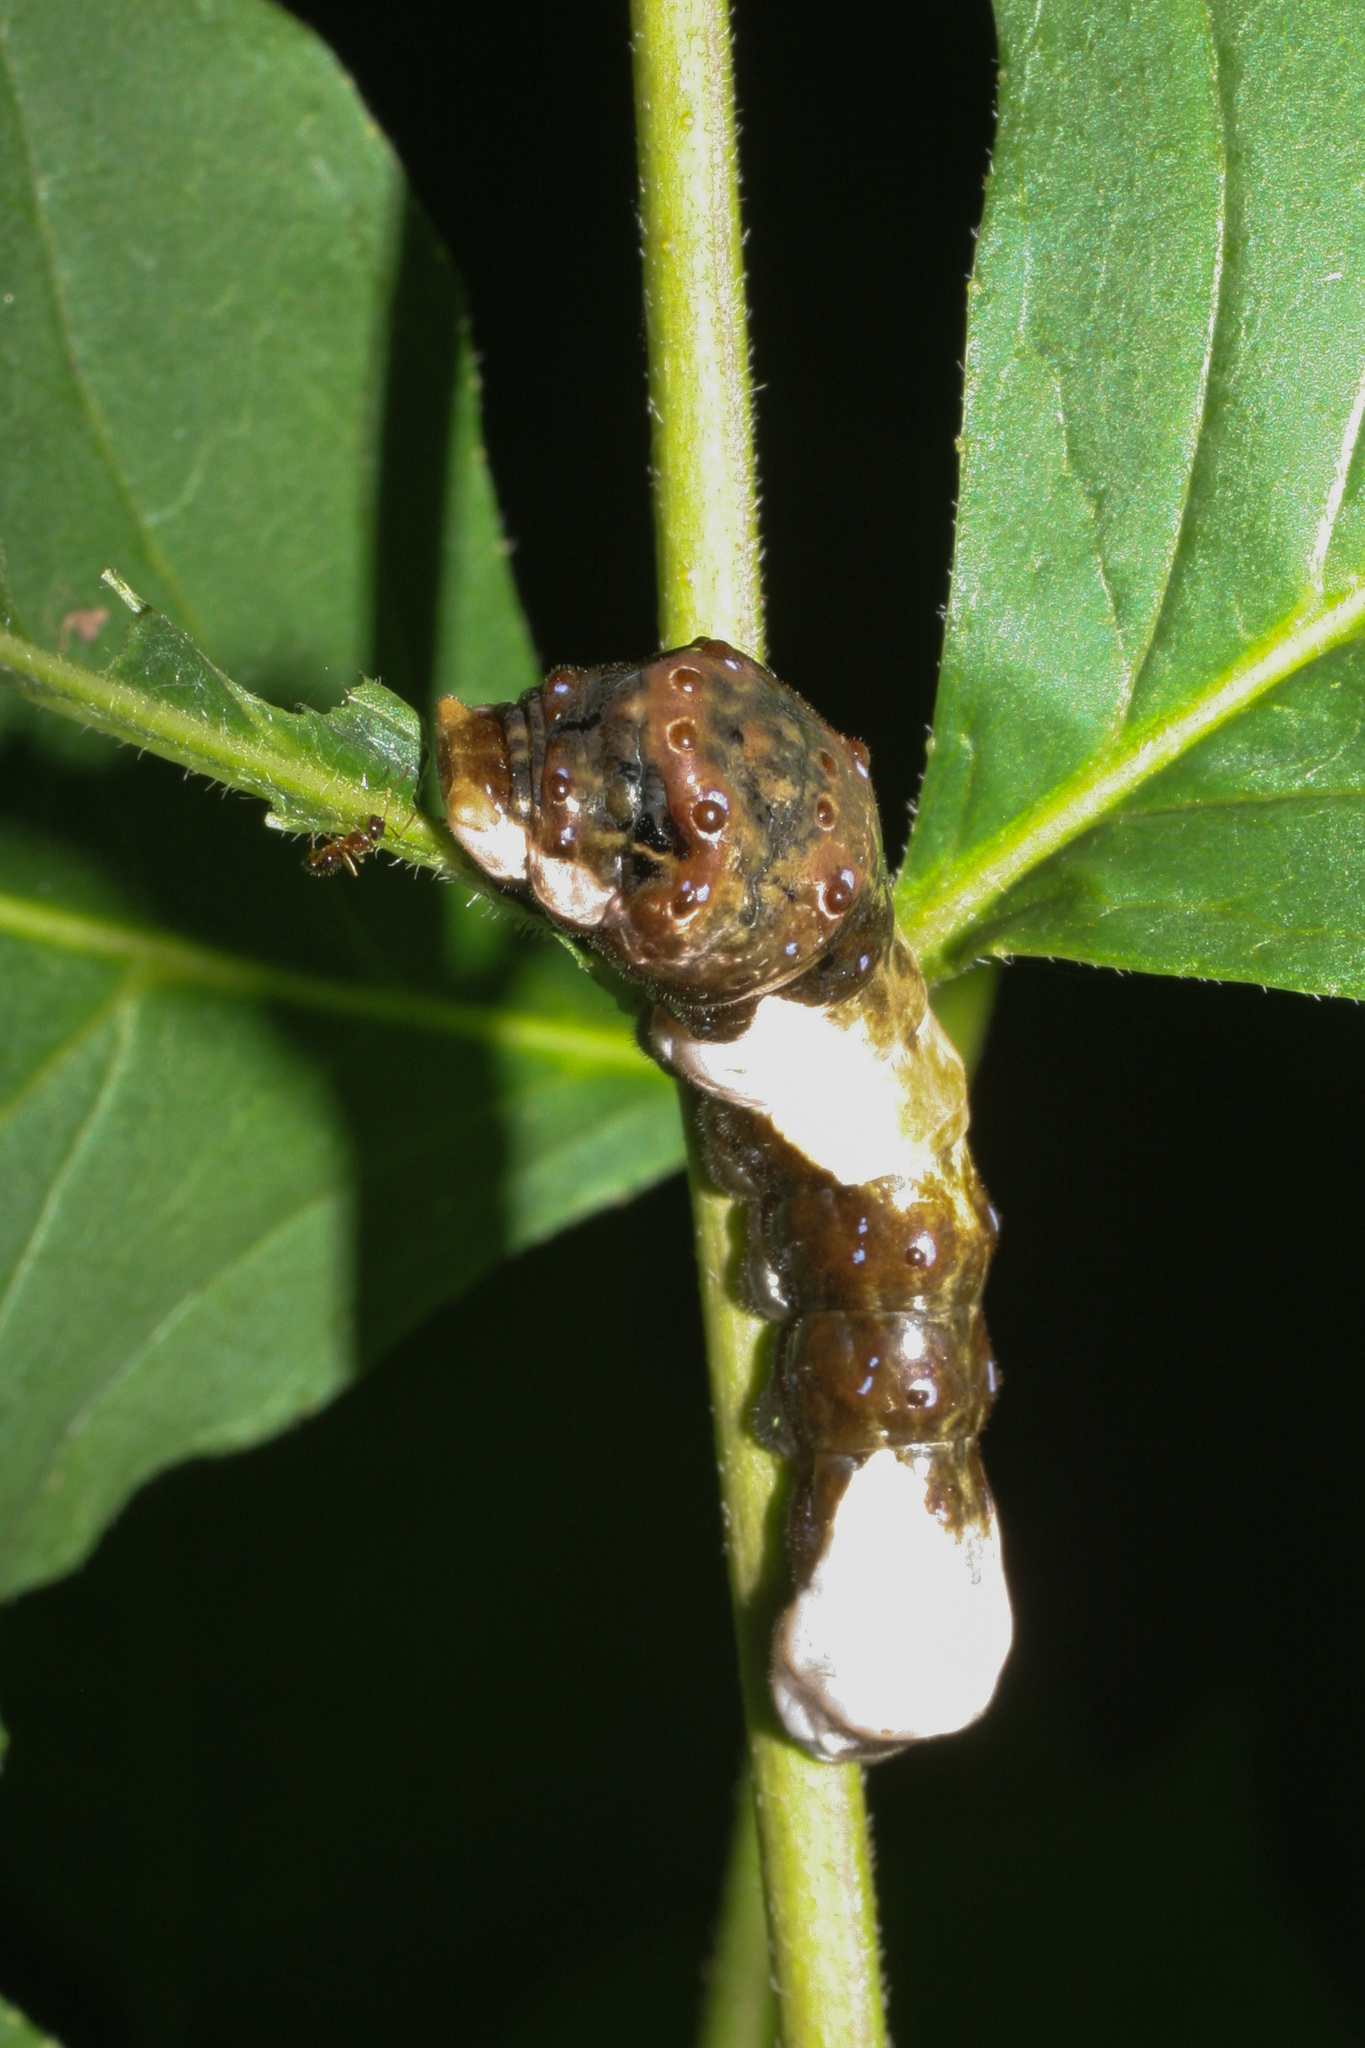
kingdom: Animalia
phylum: Arthropoda
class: Insecta
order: Lepidoptera
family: Papilionidae
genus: Papilio
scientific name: Papilio cresphontes
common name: Giant swallowtail
